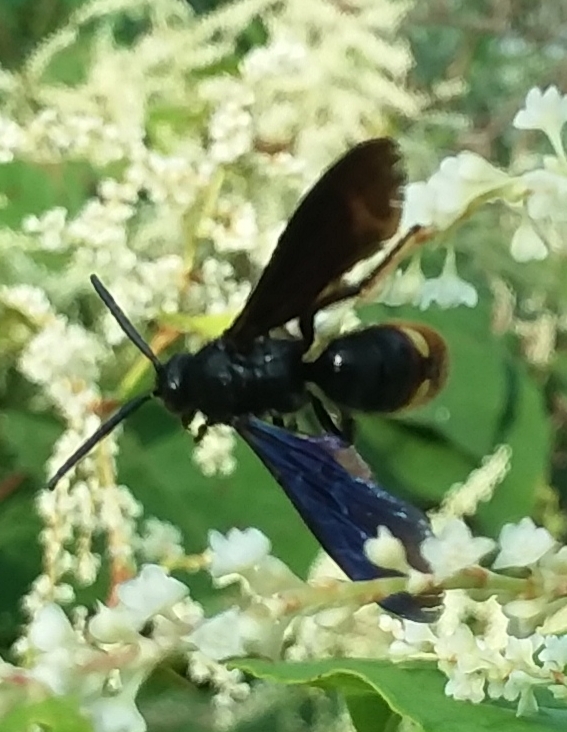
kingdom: Animalia
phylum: Arthropoda
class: Insecta
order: Hymenoptera
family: Scoliidae
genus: Scolia
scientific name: Scolia dubia
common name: Blue-winged scoliid wasp
